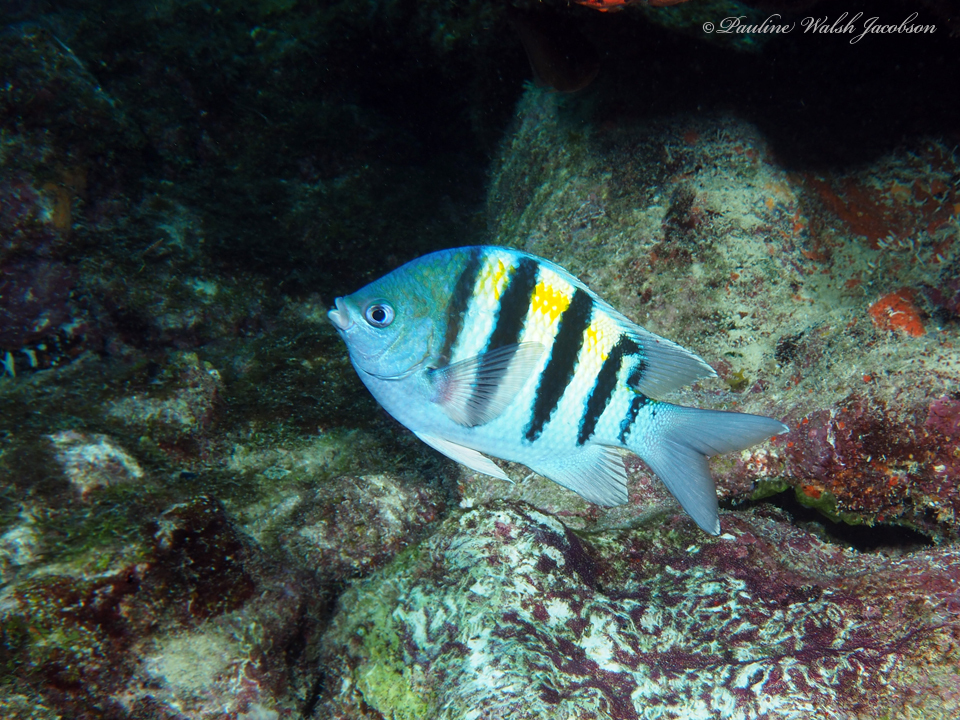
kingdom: Animalia
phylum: Chordata
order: Perciformes
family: Pomacentridae
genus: Abudefduf
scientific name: Abudefduf saxatilis
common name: Sergeant major
